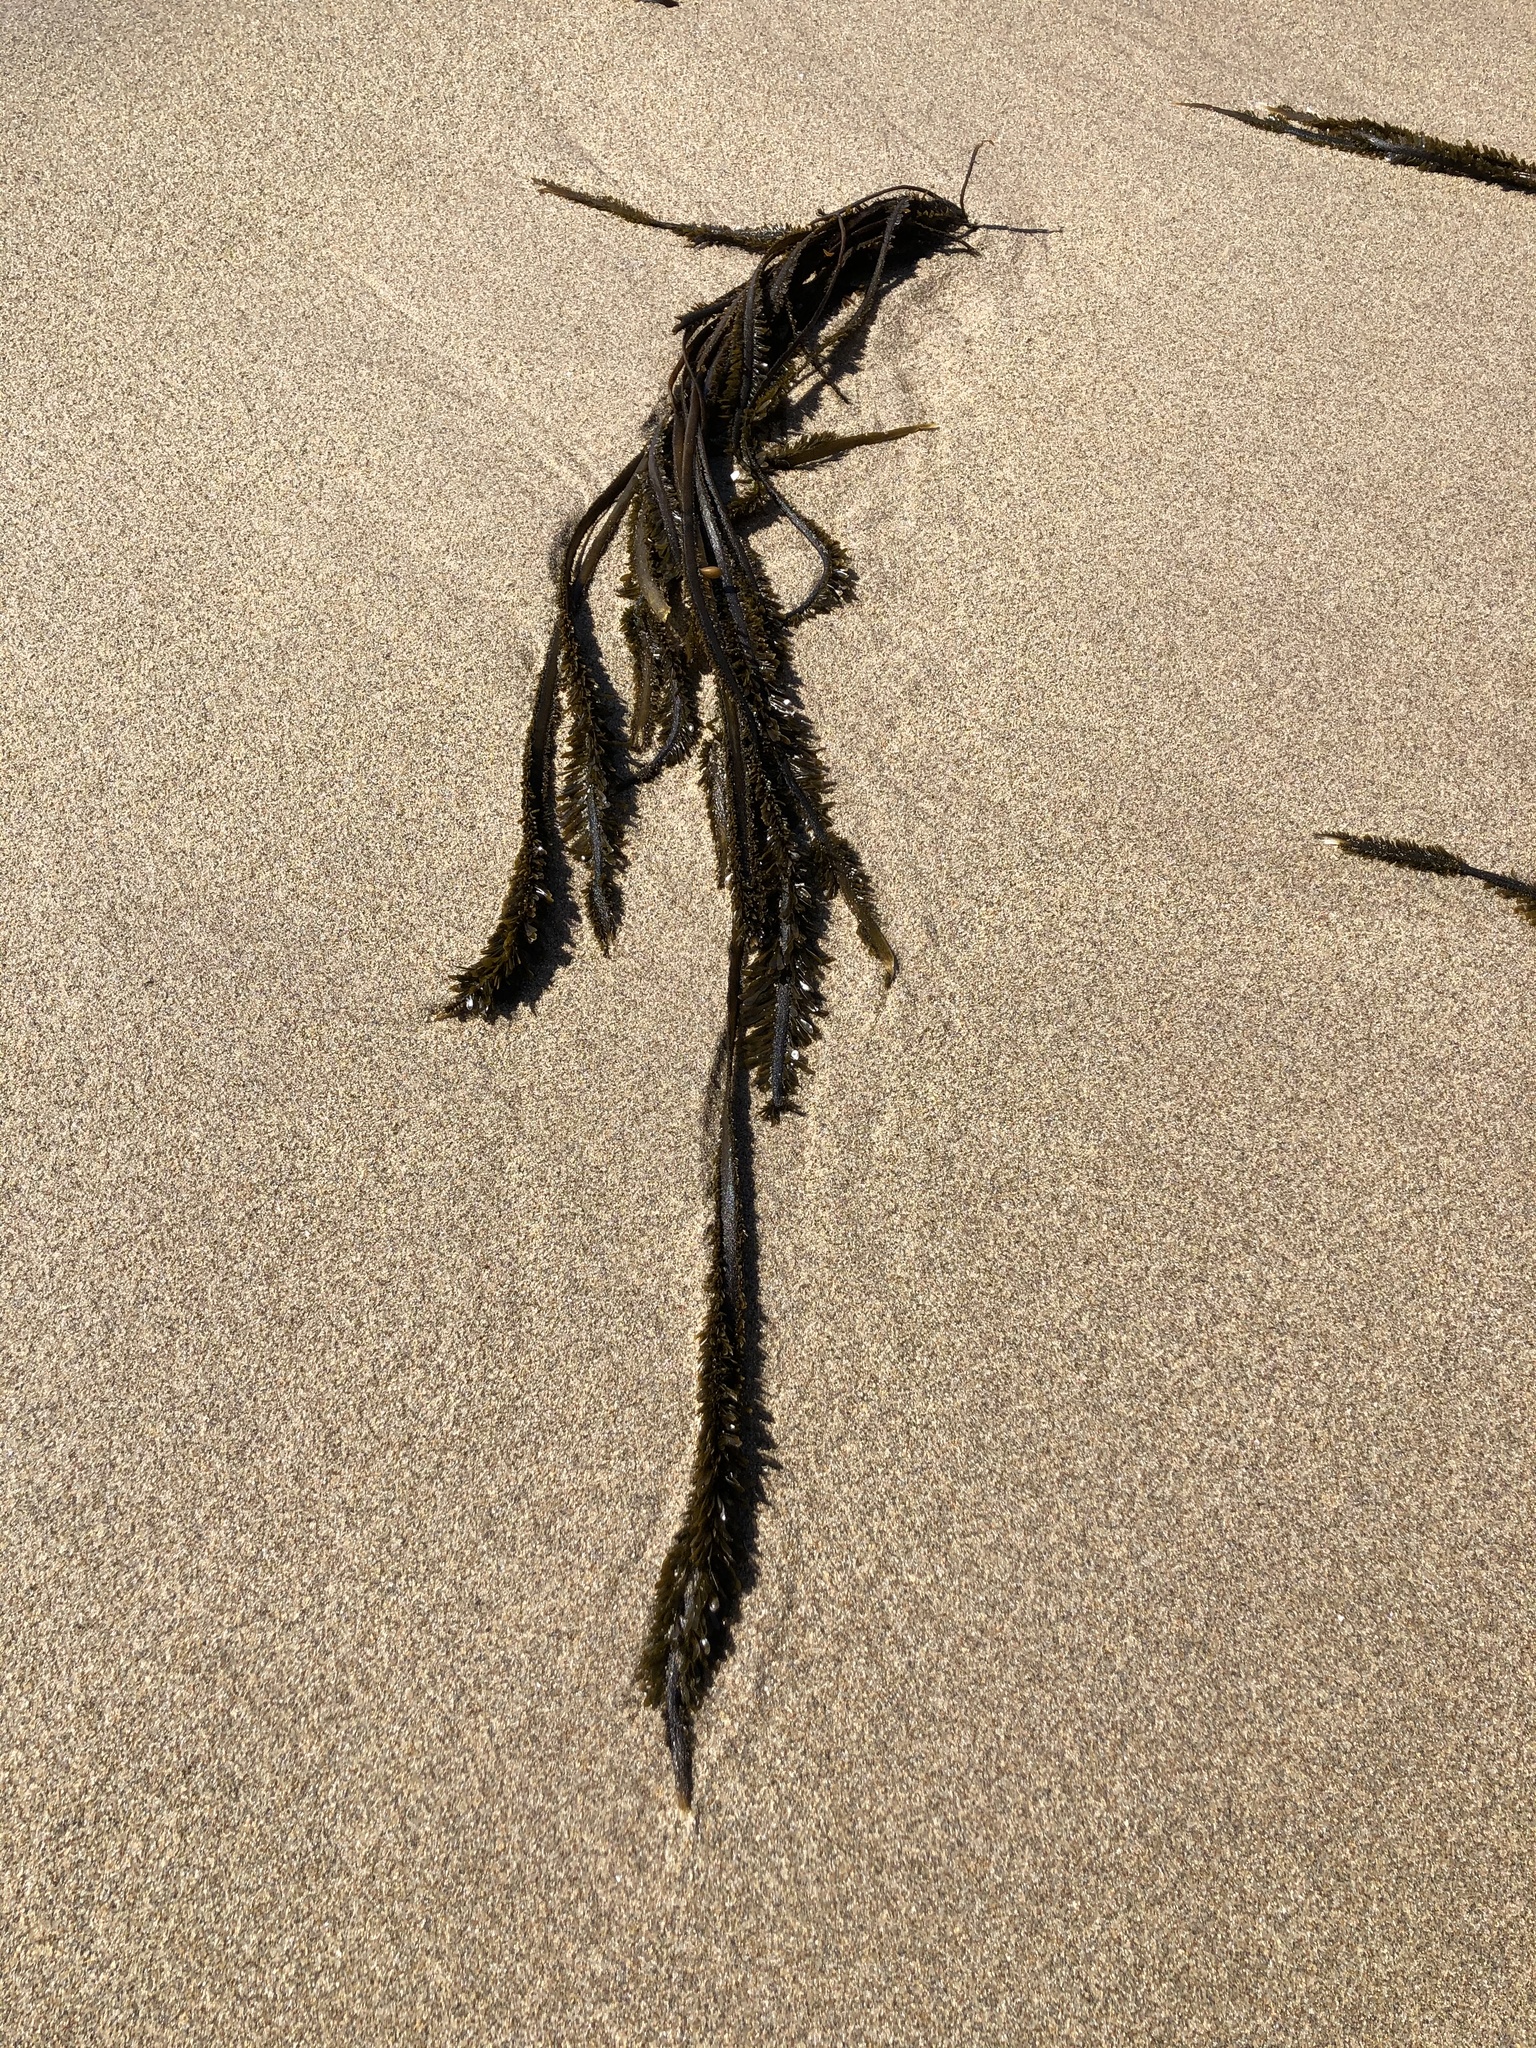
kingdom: Chromista
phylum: Ochrophyta
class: Phaeophyceae
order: Laminariales
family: Lessoniaceae
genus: Egregia
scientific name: Egregia menziesii
